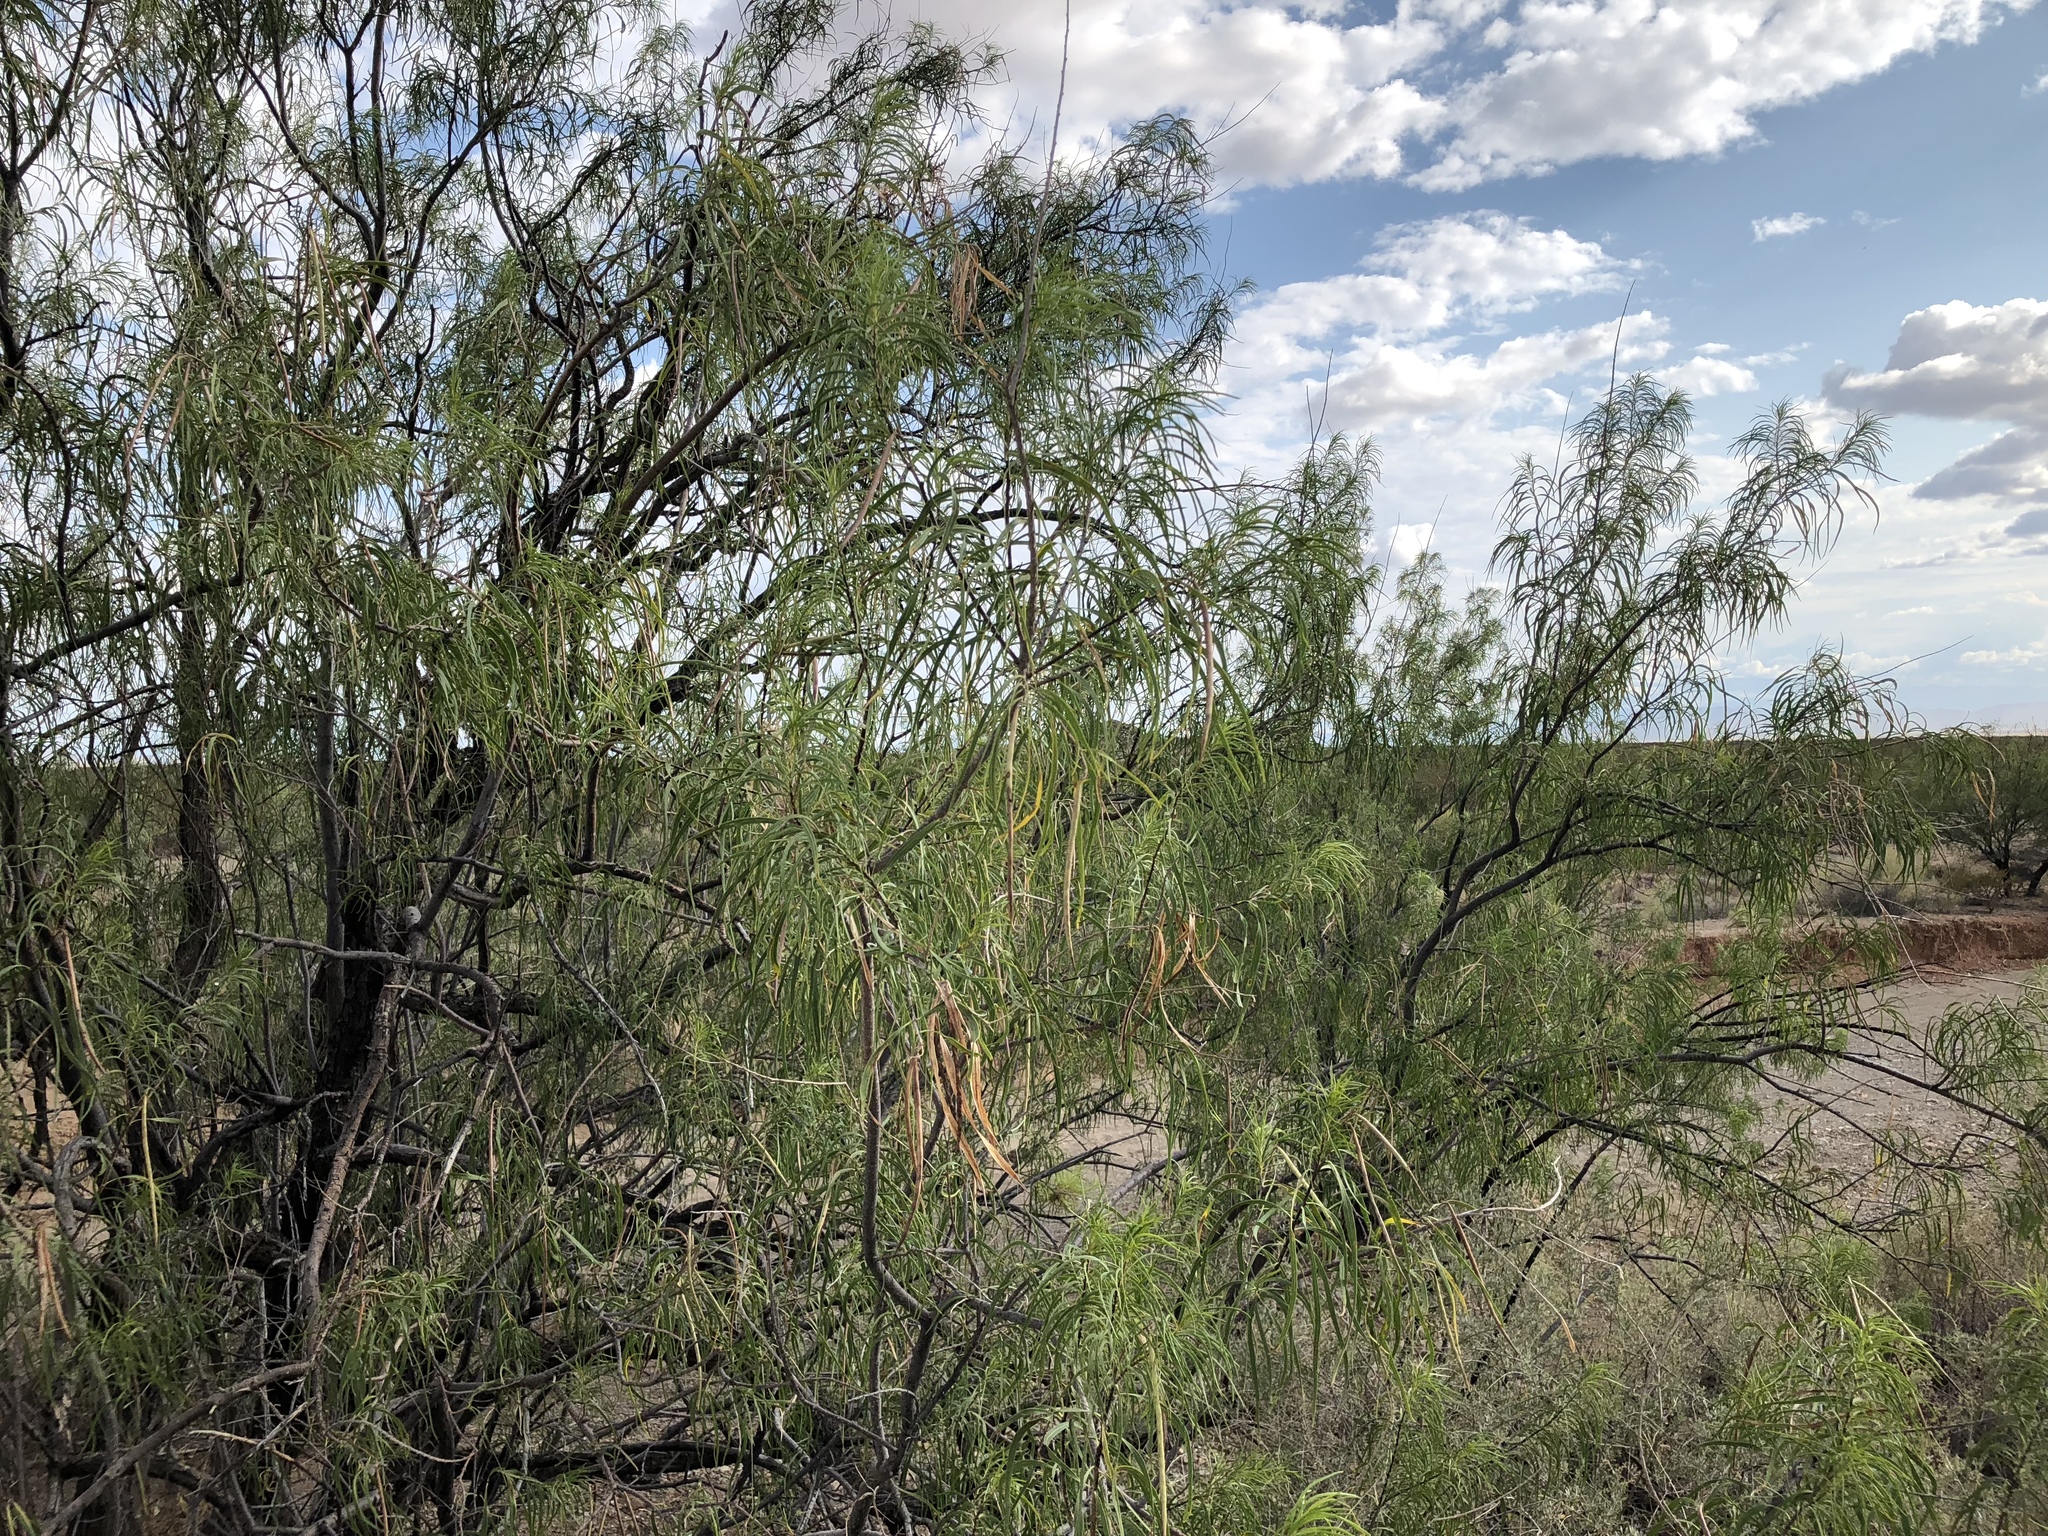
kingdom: Plantae
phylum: Tracheophyta
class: Magnoliopsida
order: Lamiales
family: Bignoniaceae
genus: Chilopsis
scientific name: Chilopsis linearis
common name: Desert-willow
